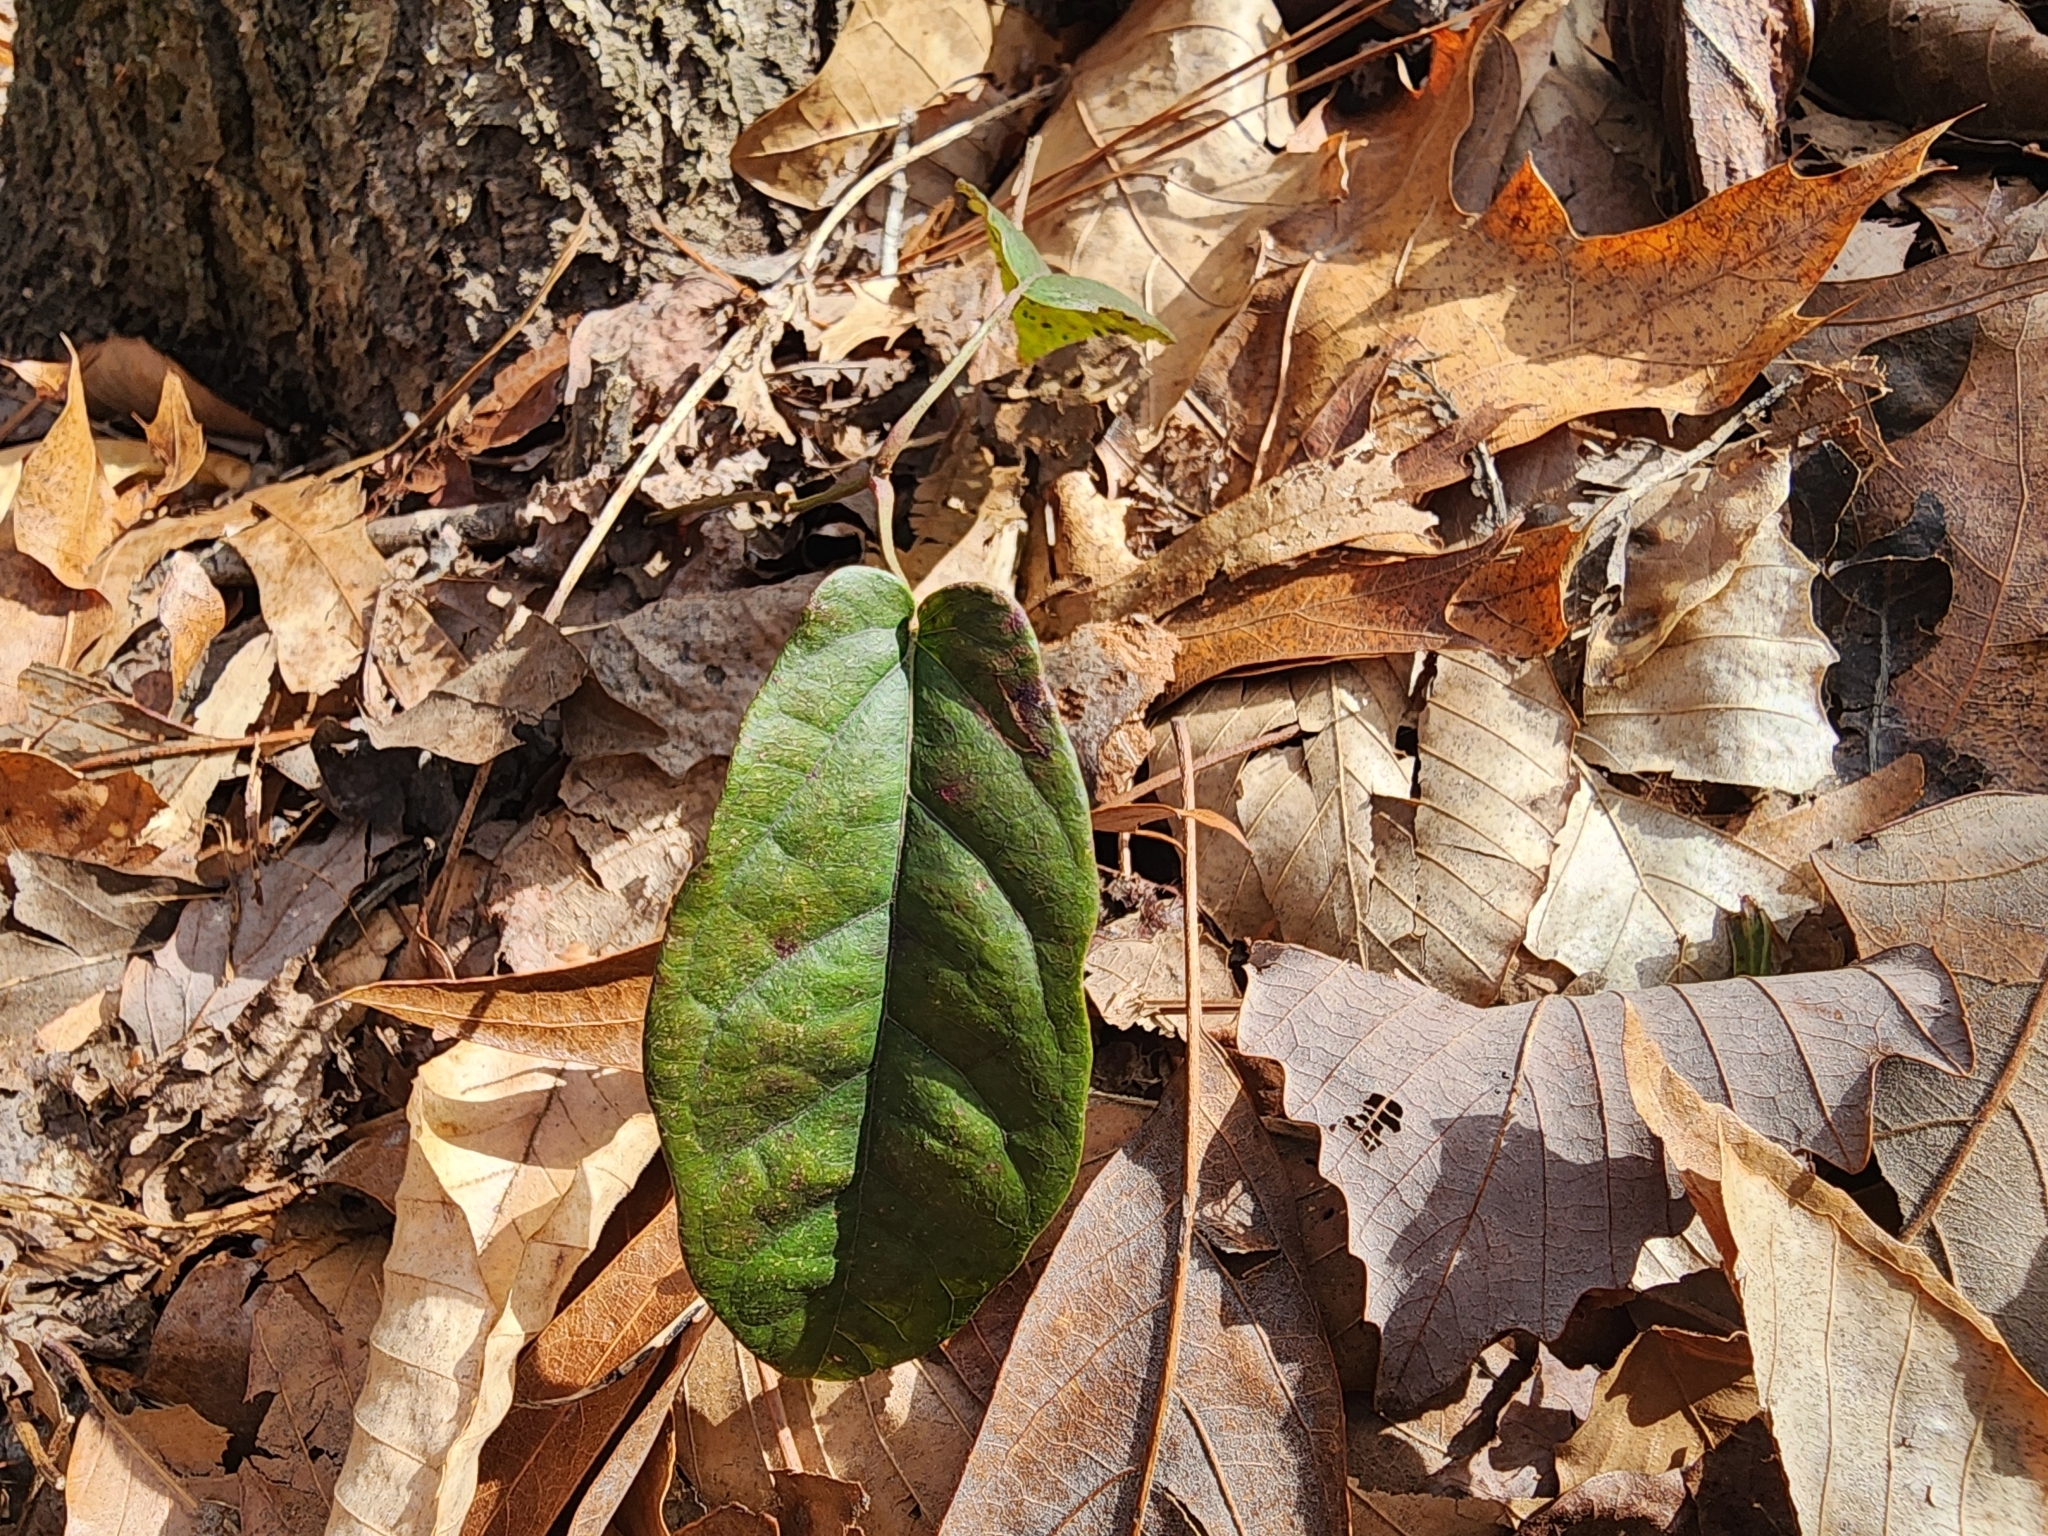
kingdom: Plantae
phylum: Tracheophyta
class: Magnoliopsida
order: Lamiales
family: Bignoniaceae
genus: Bignonia
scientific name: Bignonia capreolata
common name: Crossvine
